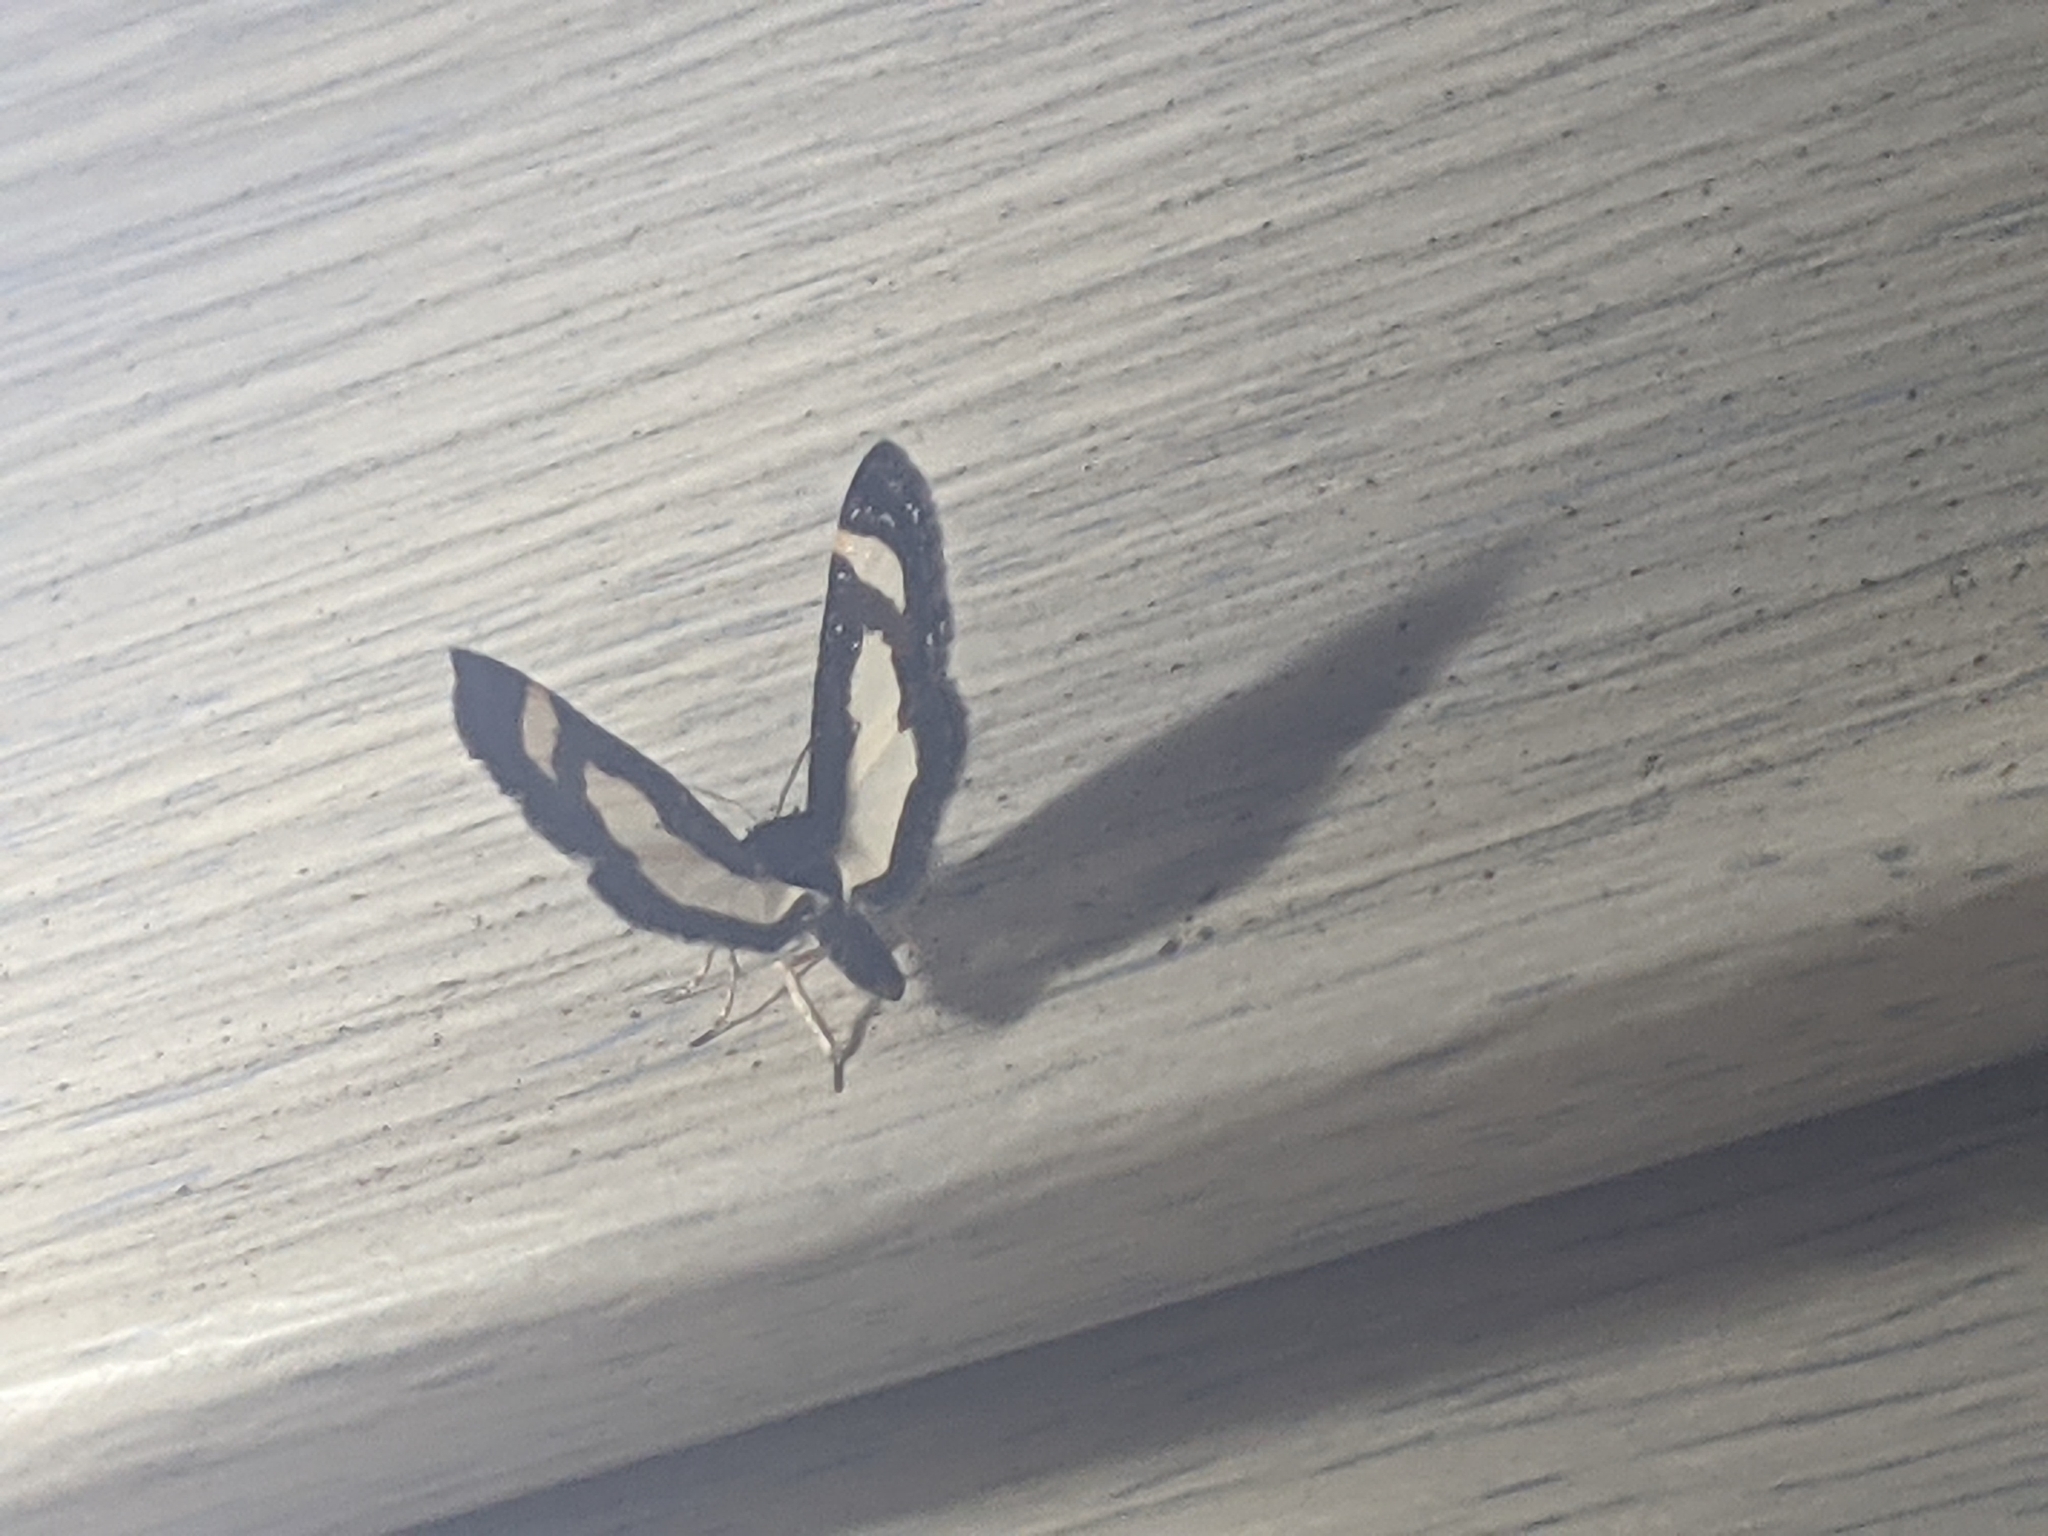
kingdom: Animalia
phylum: Arthropoda
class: Insecta
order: Lepidoptera
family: Geometridae
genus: Heliomata
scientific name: Heliomata cycladata
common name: Common spring moth
